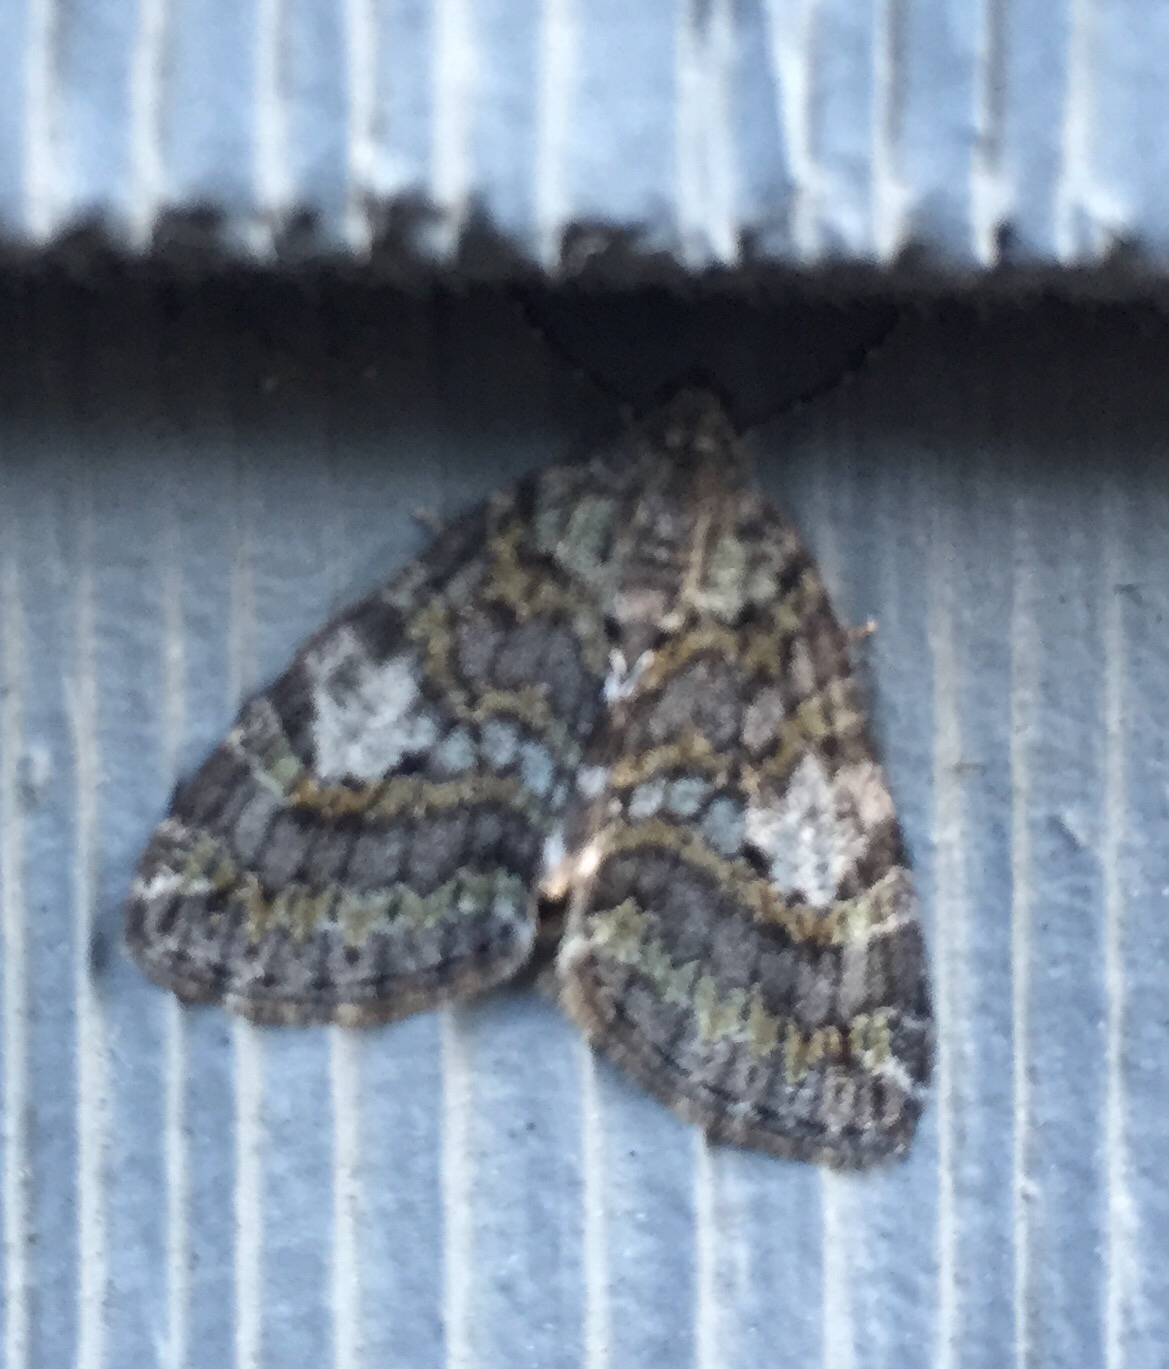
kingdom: Animalia
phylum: Arthropoda
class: Insecta
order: Lepidoptera
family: Geometridae
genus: Hydriomena
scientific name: Hydriomena nubilofasciata
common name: Oak winter highflier moth
